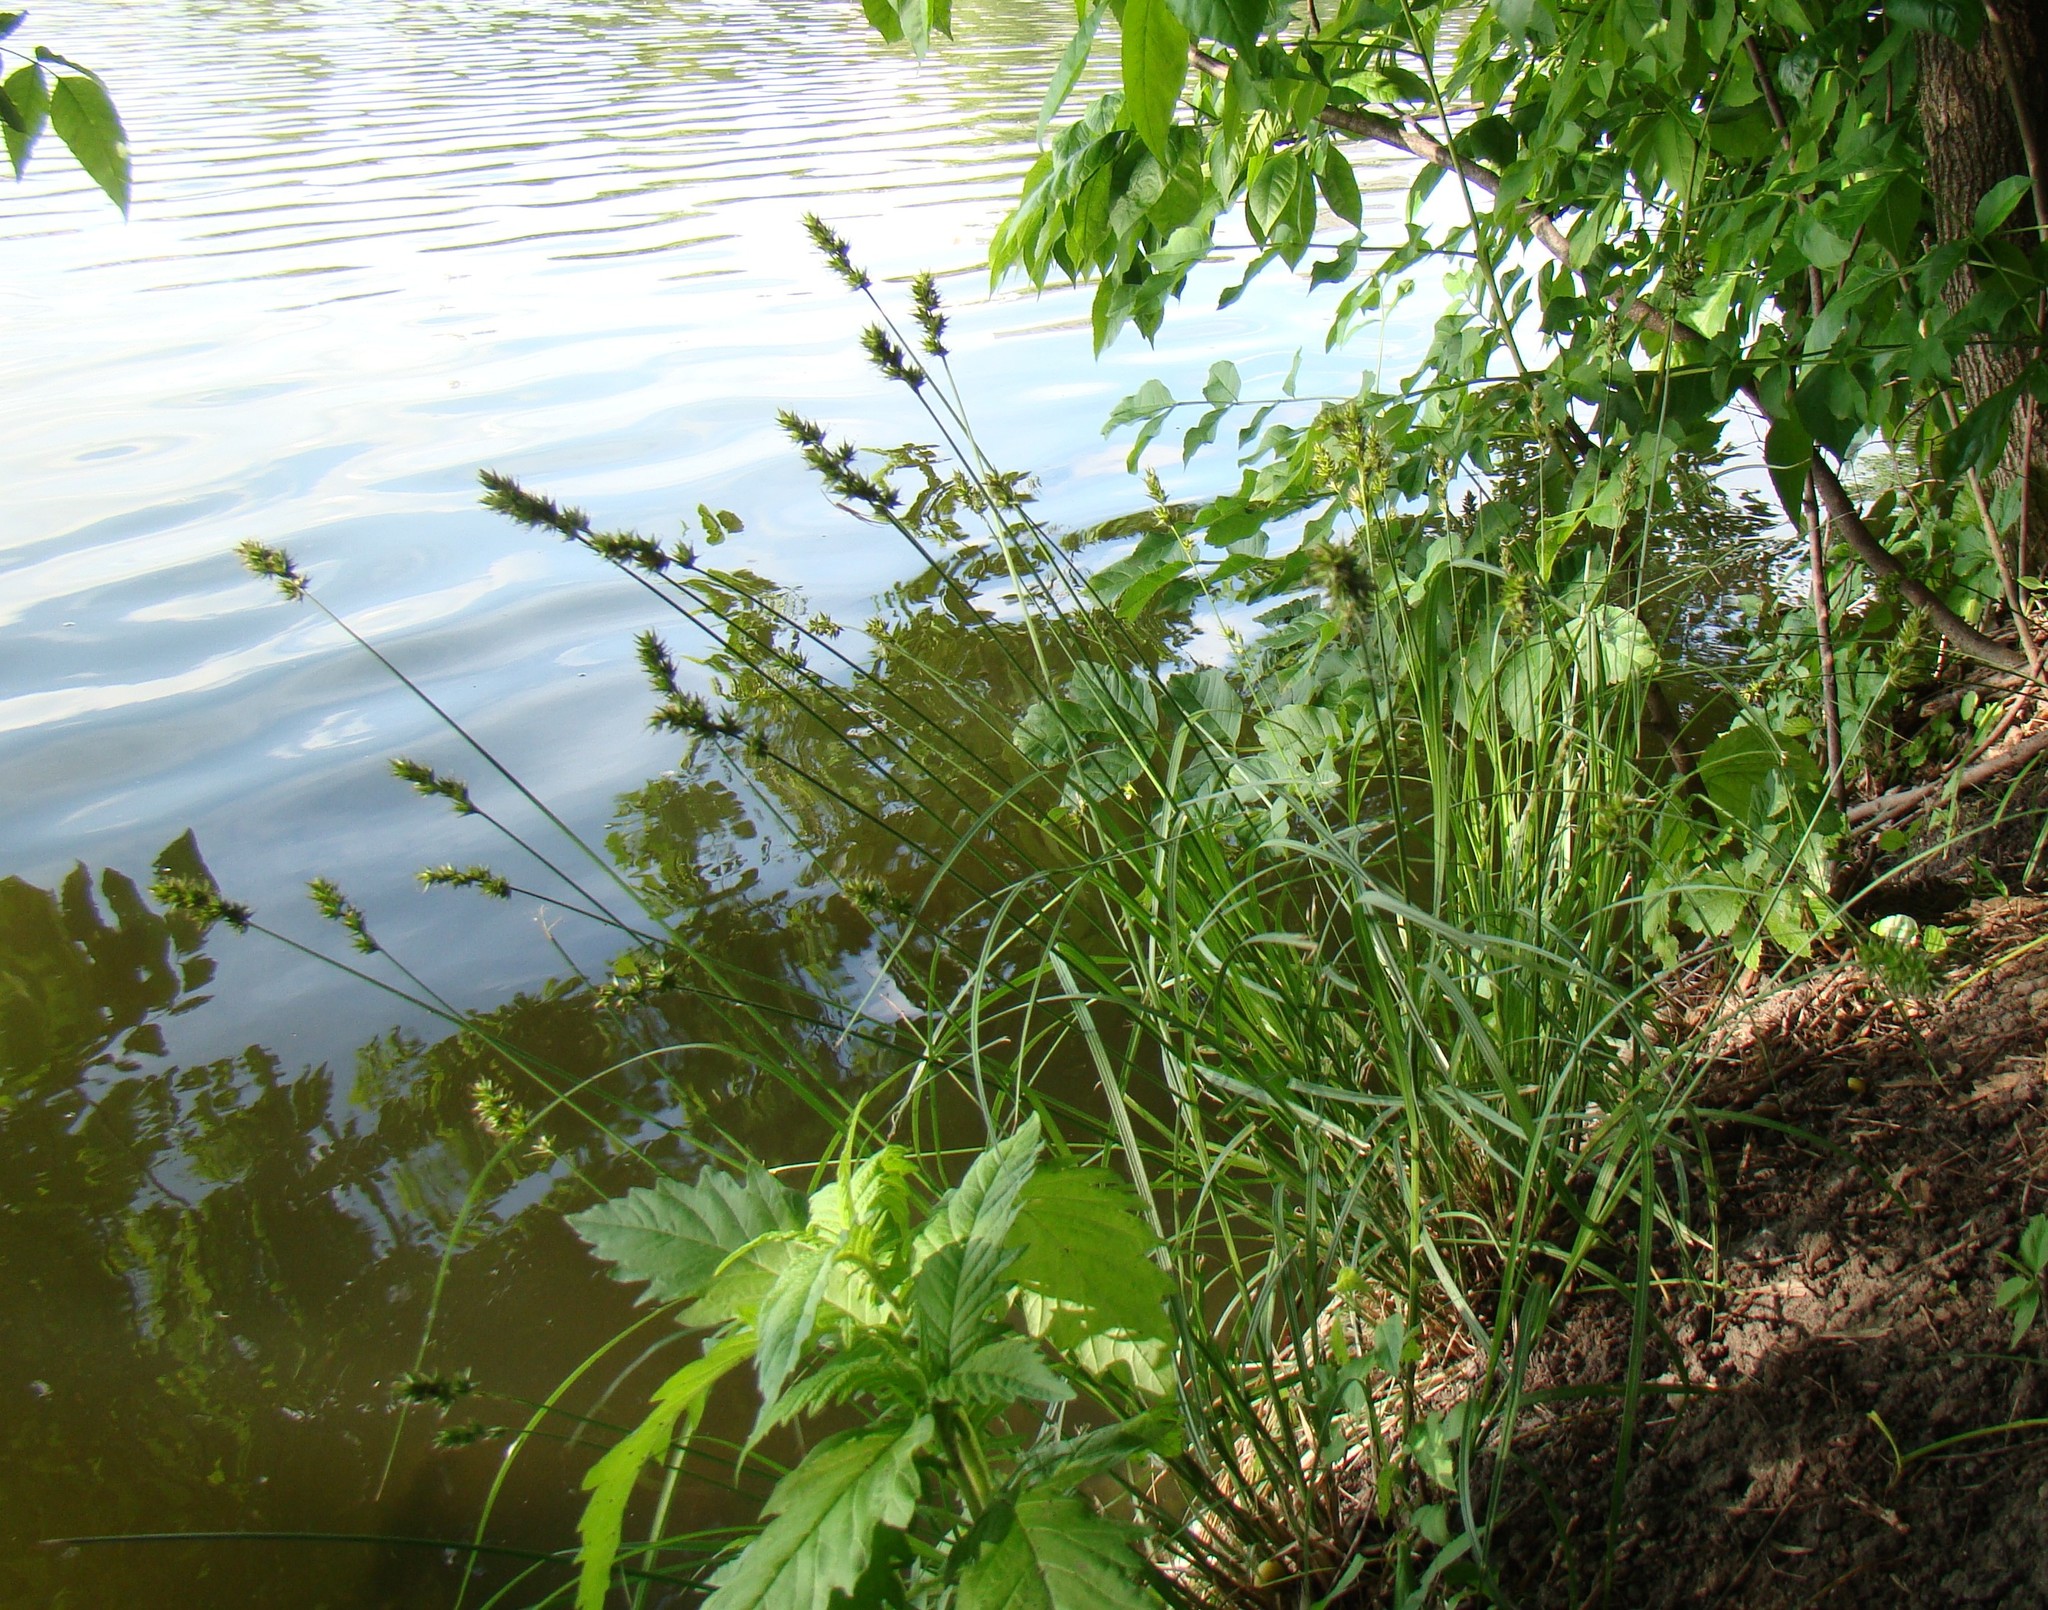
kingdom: Plantae
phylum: Tracheophyta
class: Liliopsida
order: Poales
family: Cyperaceae
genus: Carex
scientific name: Carex otrubae
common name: False fox-sedge
